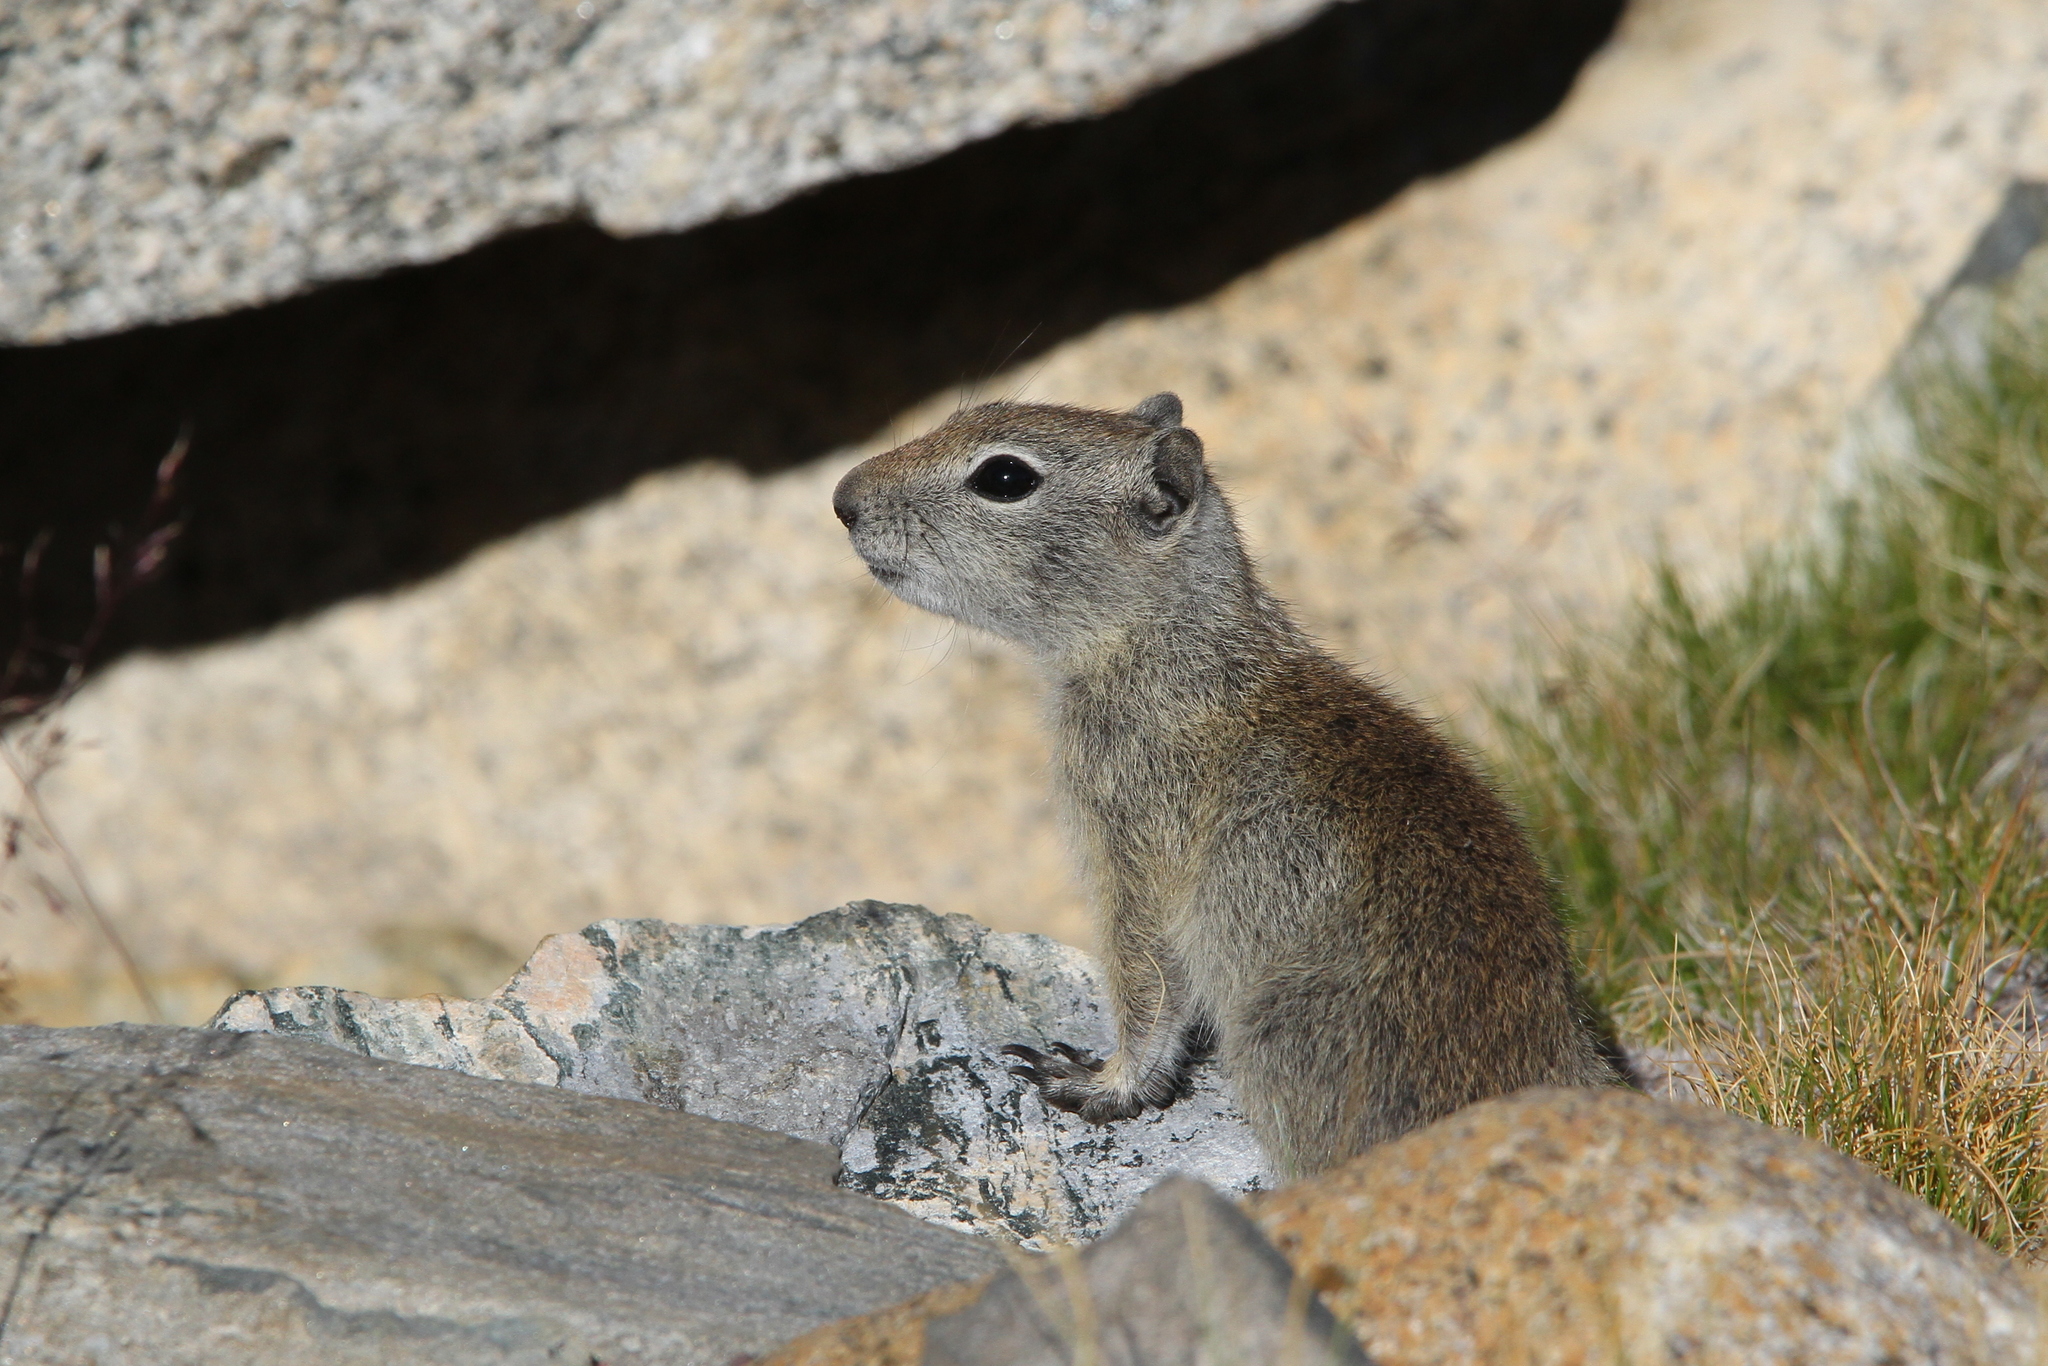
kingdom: Animalia
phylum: Chordata
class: Mammalia
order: Rodentia
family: Sciuridae
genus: Urocitellus
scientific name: Urocitellus beldingi
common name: Belding's ground squirrel
